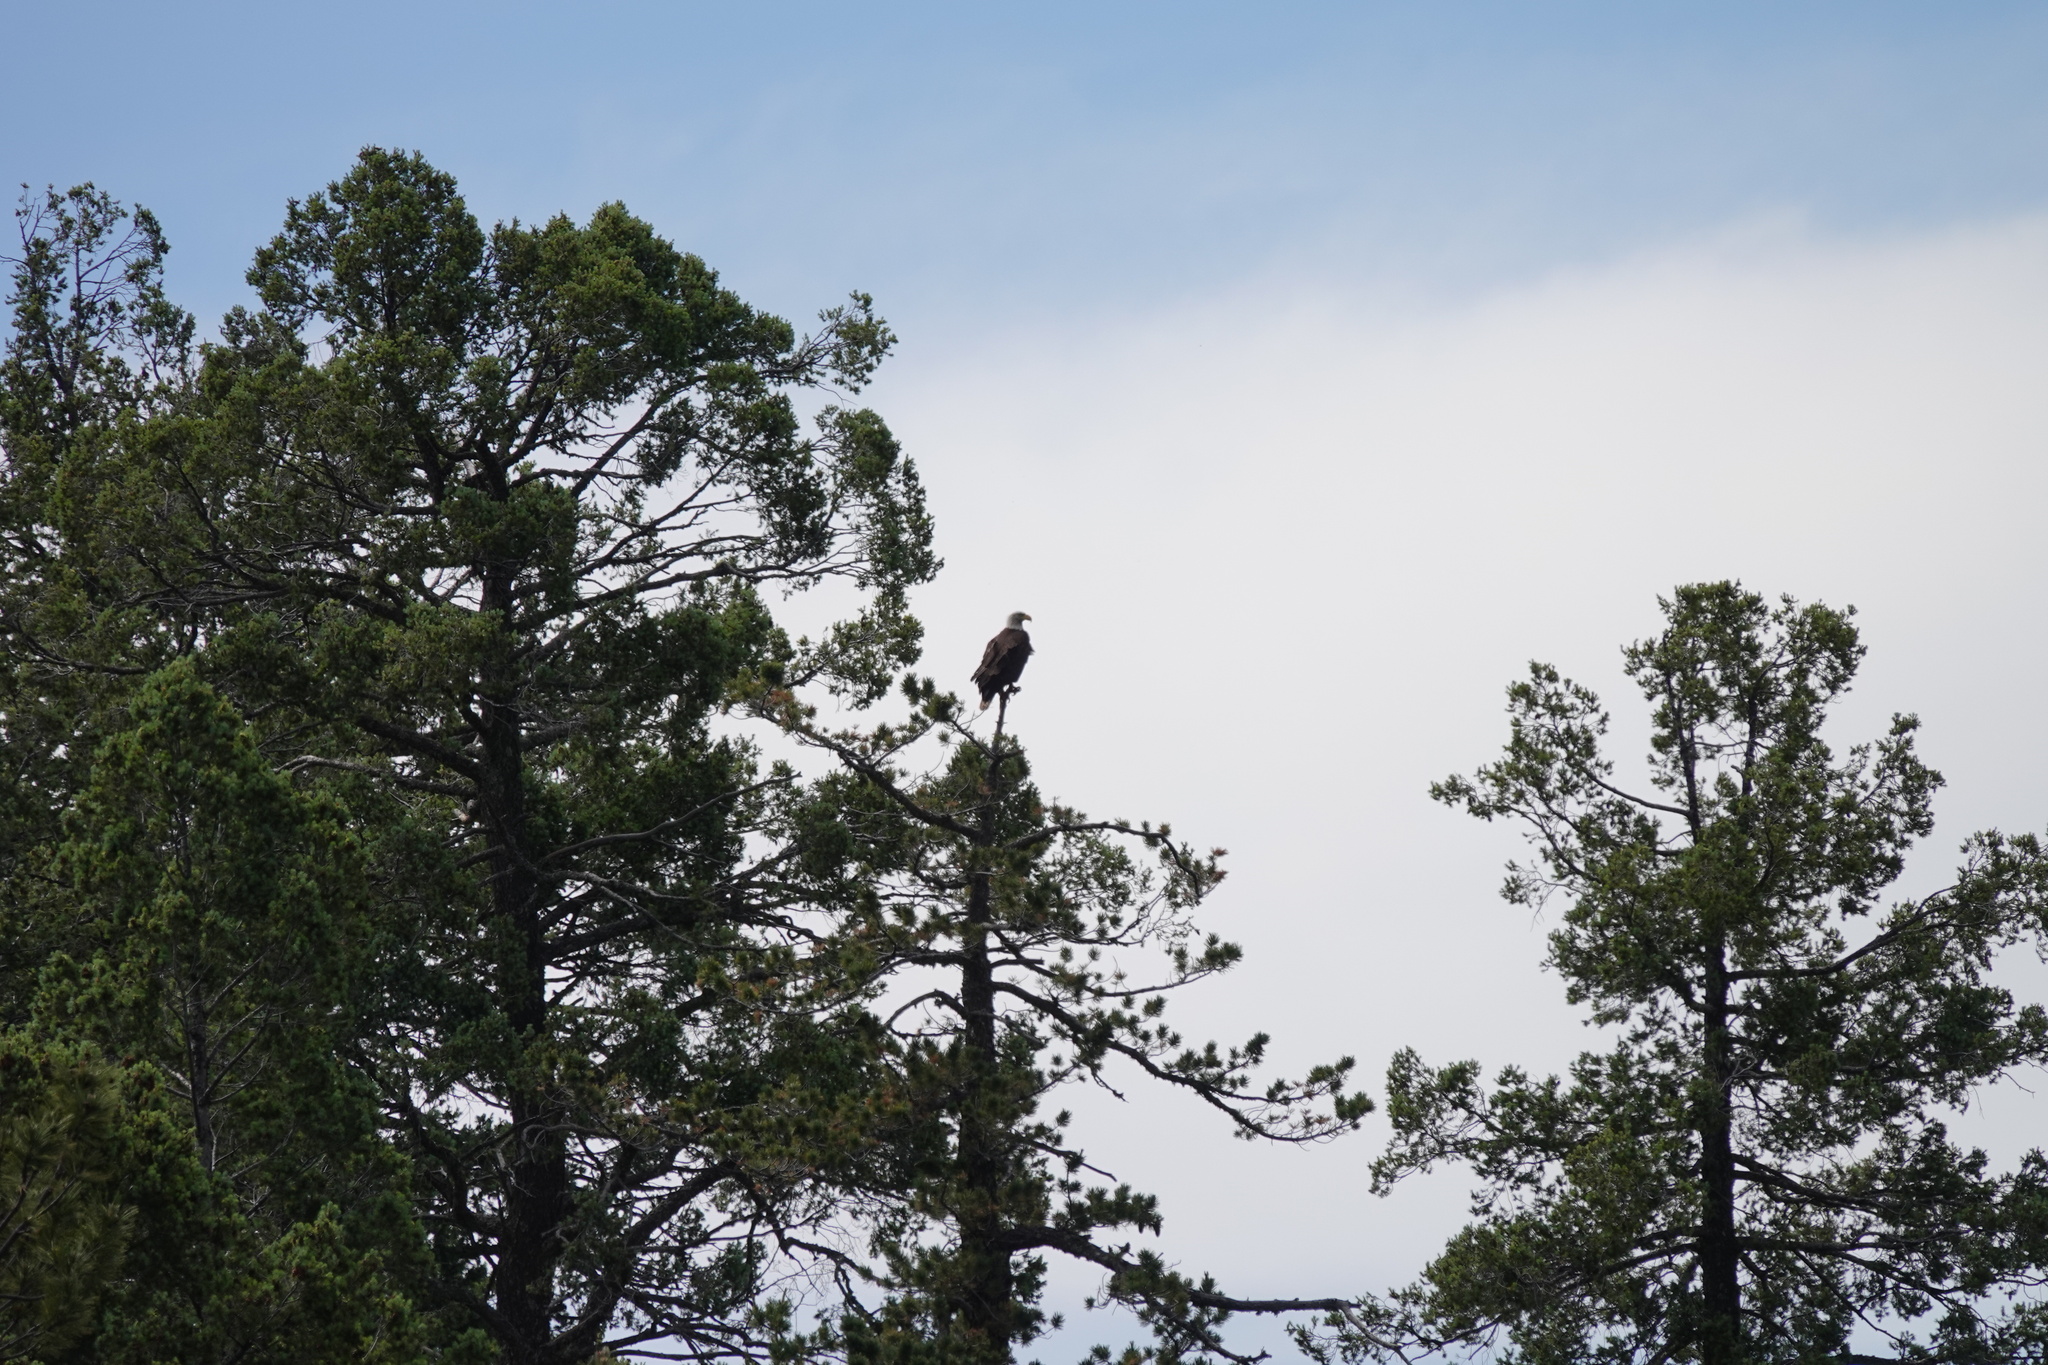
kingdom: Animalia
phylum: Chordata
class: Aves
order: Accipitriformes
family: Accipitridae
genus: Haliaeetus
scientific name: Haliaeetus leucocephalus
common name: Bald eagle
